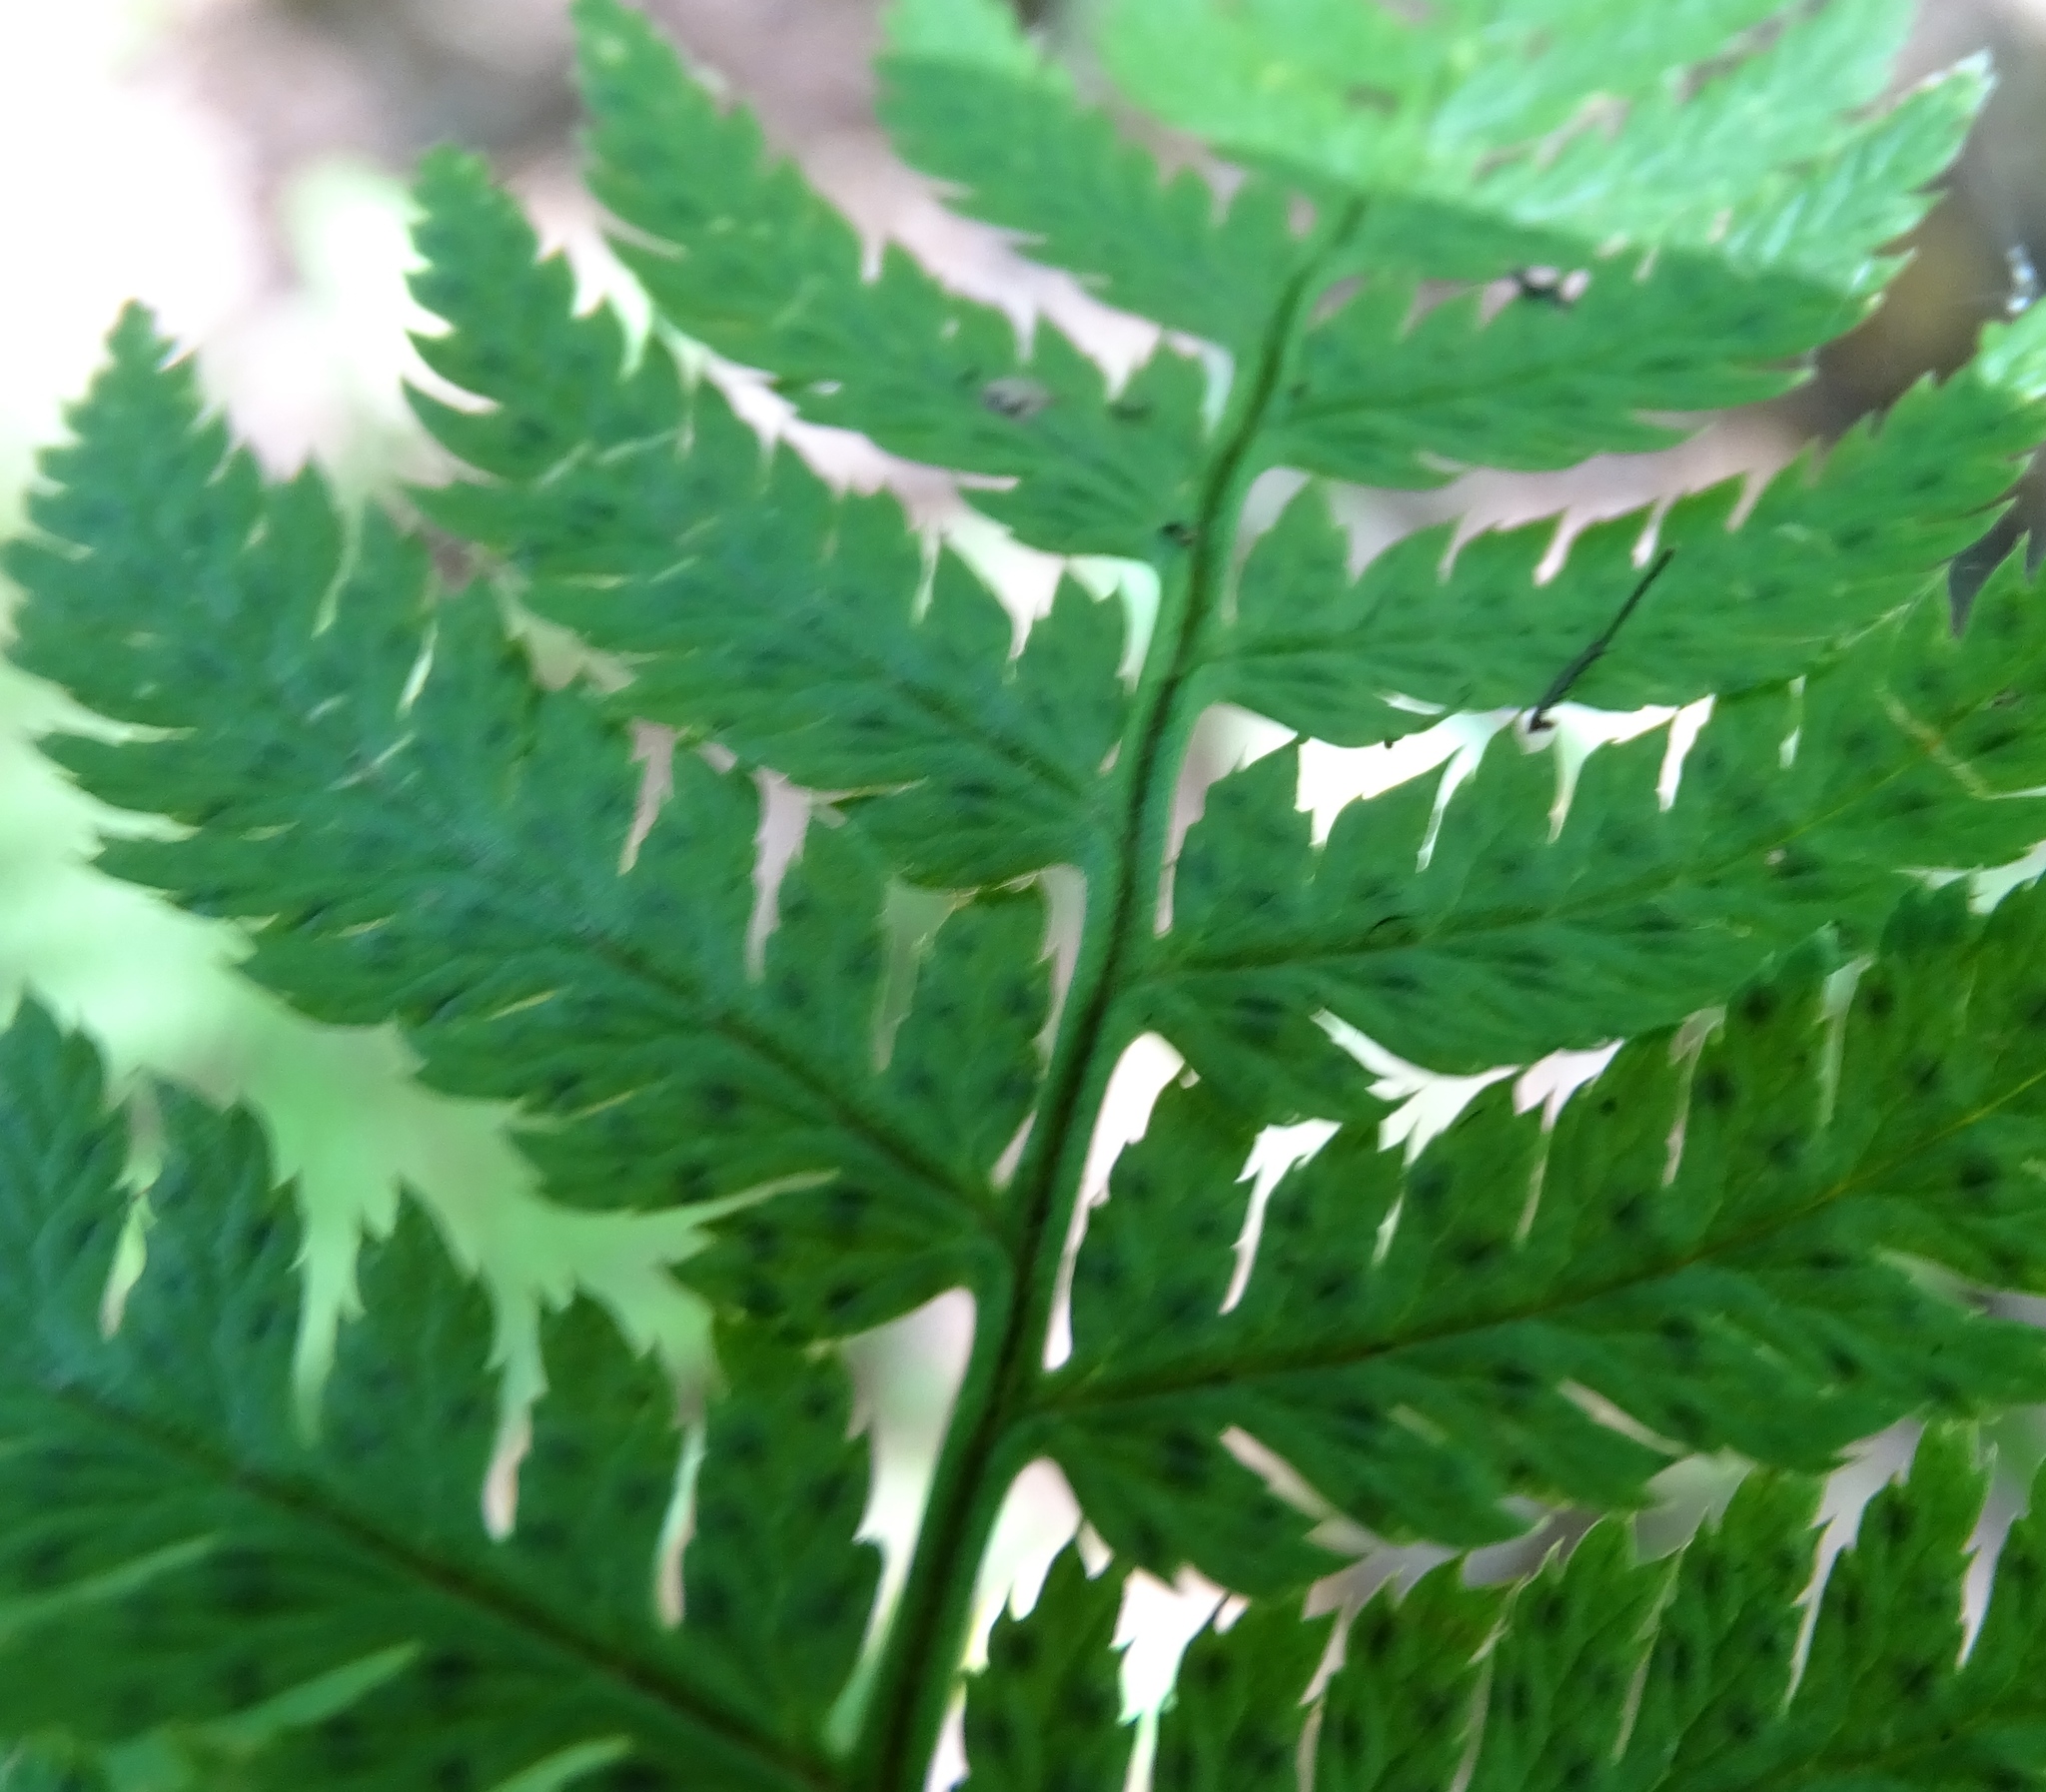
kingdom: Plantae
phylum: Tracheophyta
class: Polypodiopsida
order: Polypodiales
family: Dryopteridaceae
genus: Dryopteris
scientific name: Dryopteris carthusiana
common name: Narrow buckler-fern
